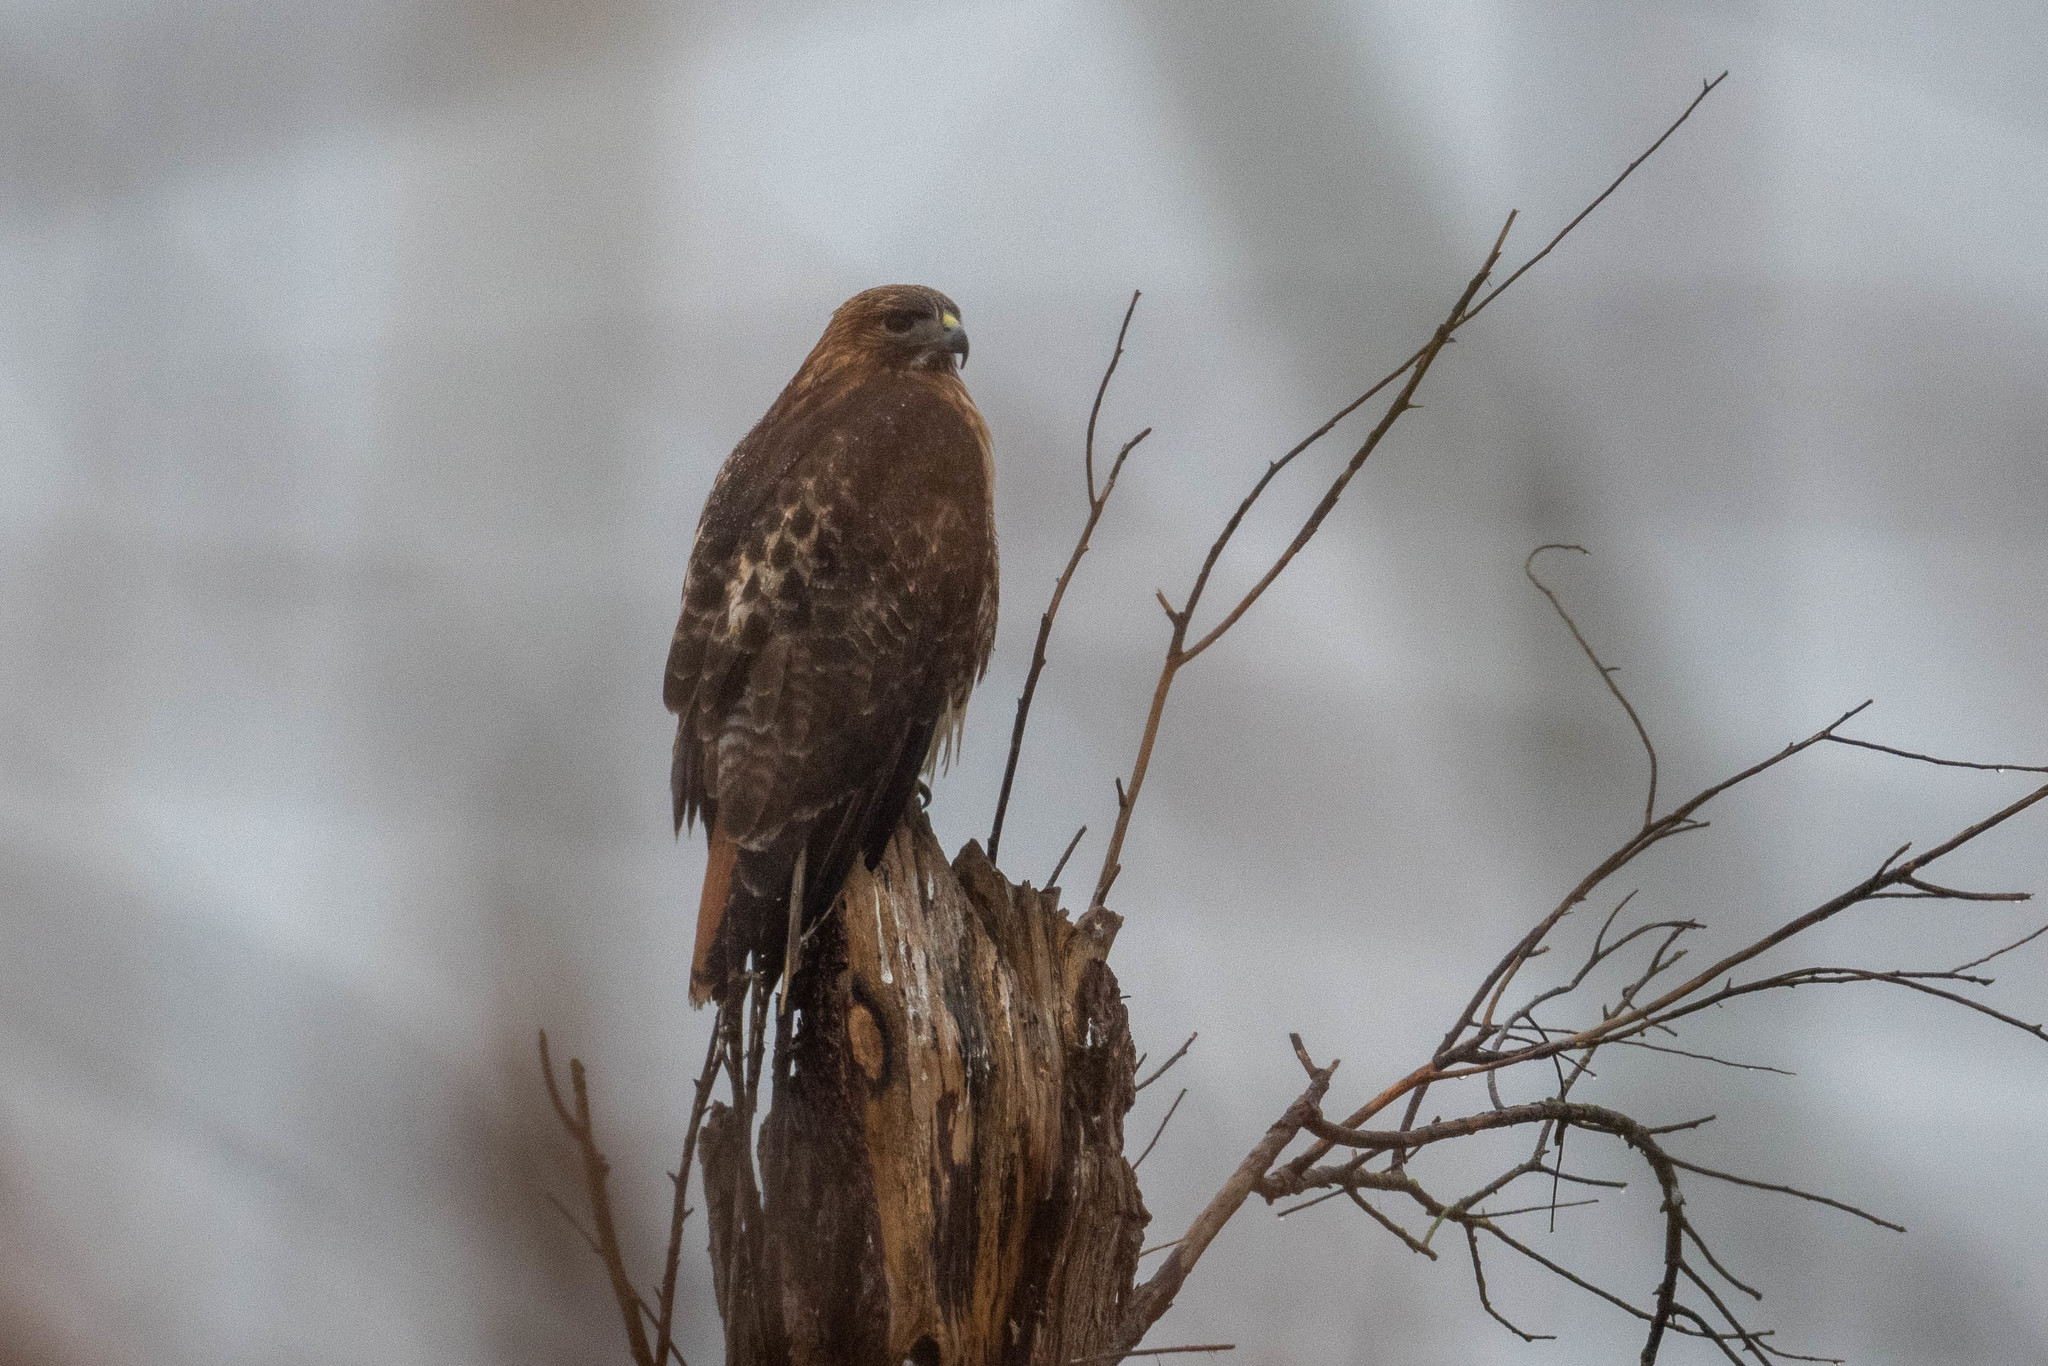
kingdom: Animalia
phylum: Chordata
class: Aves
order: Accipitriformes
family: Accipitridae
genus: Buteo
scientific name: Buteo jamaicensis
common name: Red-tailed hawk
